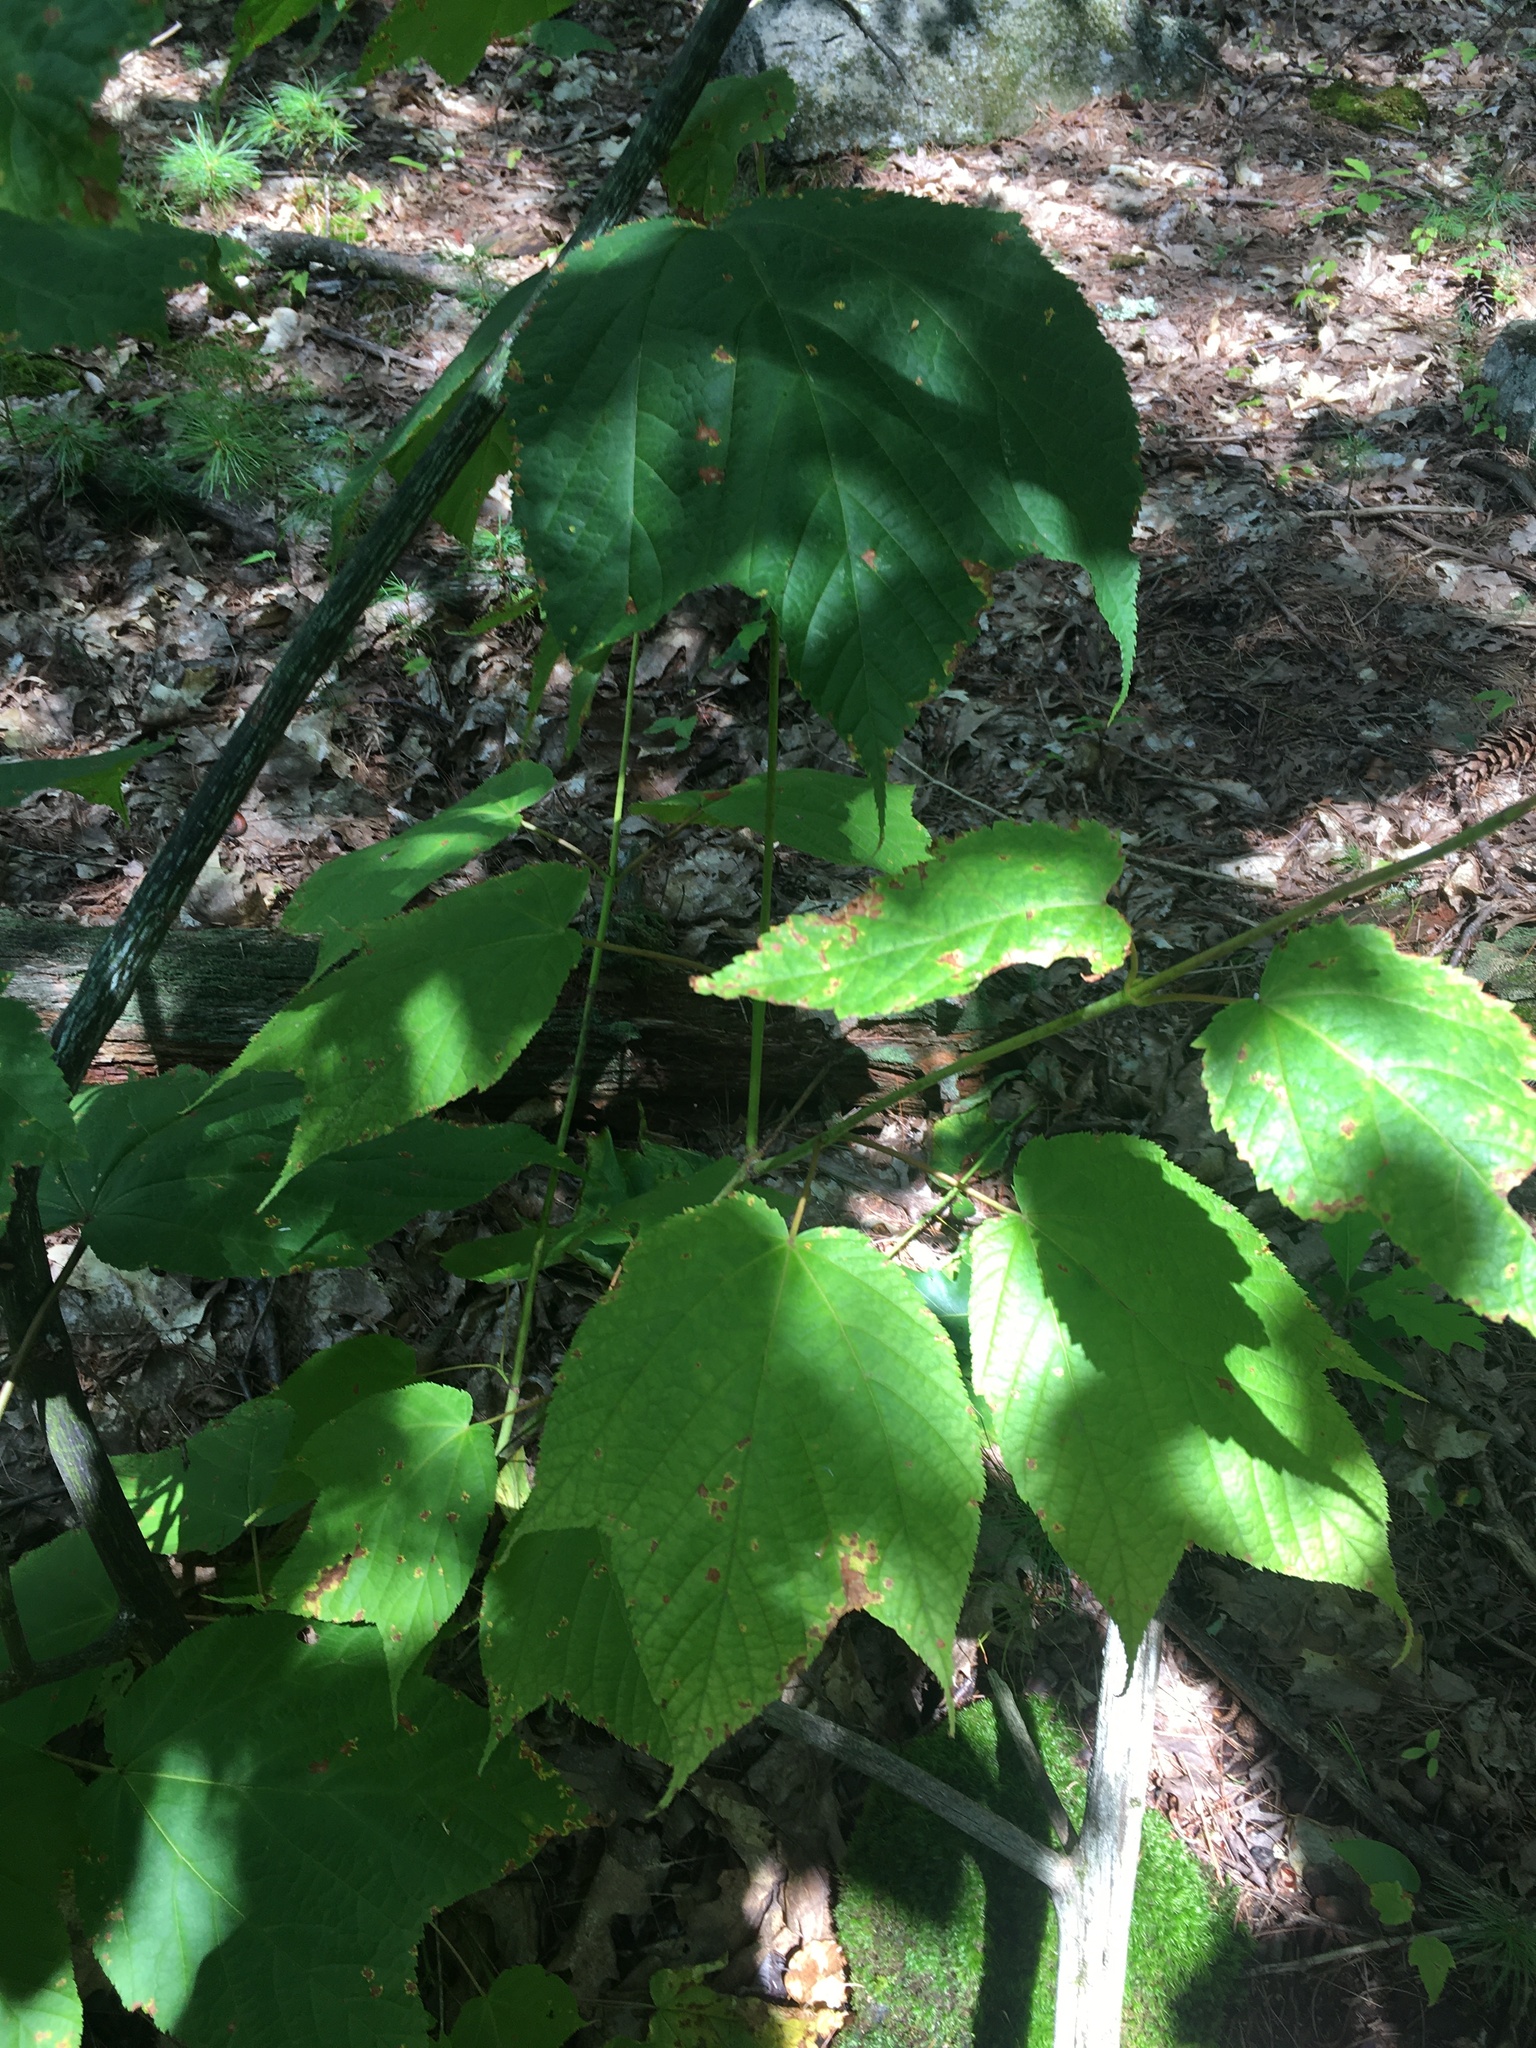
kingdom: Plantae
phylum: Tracheophyta
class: Magnoliopsida
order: Sapindales
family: Sapindaceae
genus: Acer
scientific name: Acer pensylvanicum
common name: Moosewood
